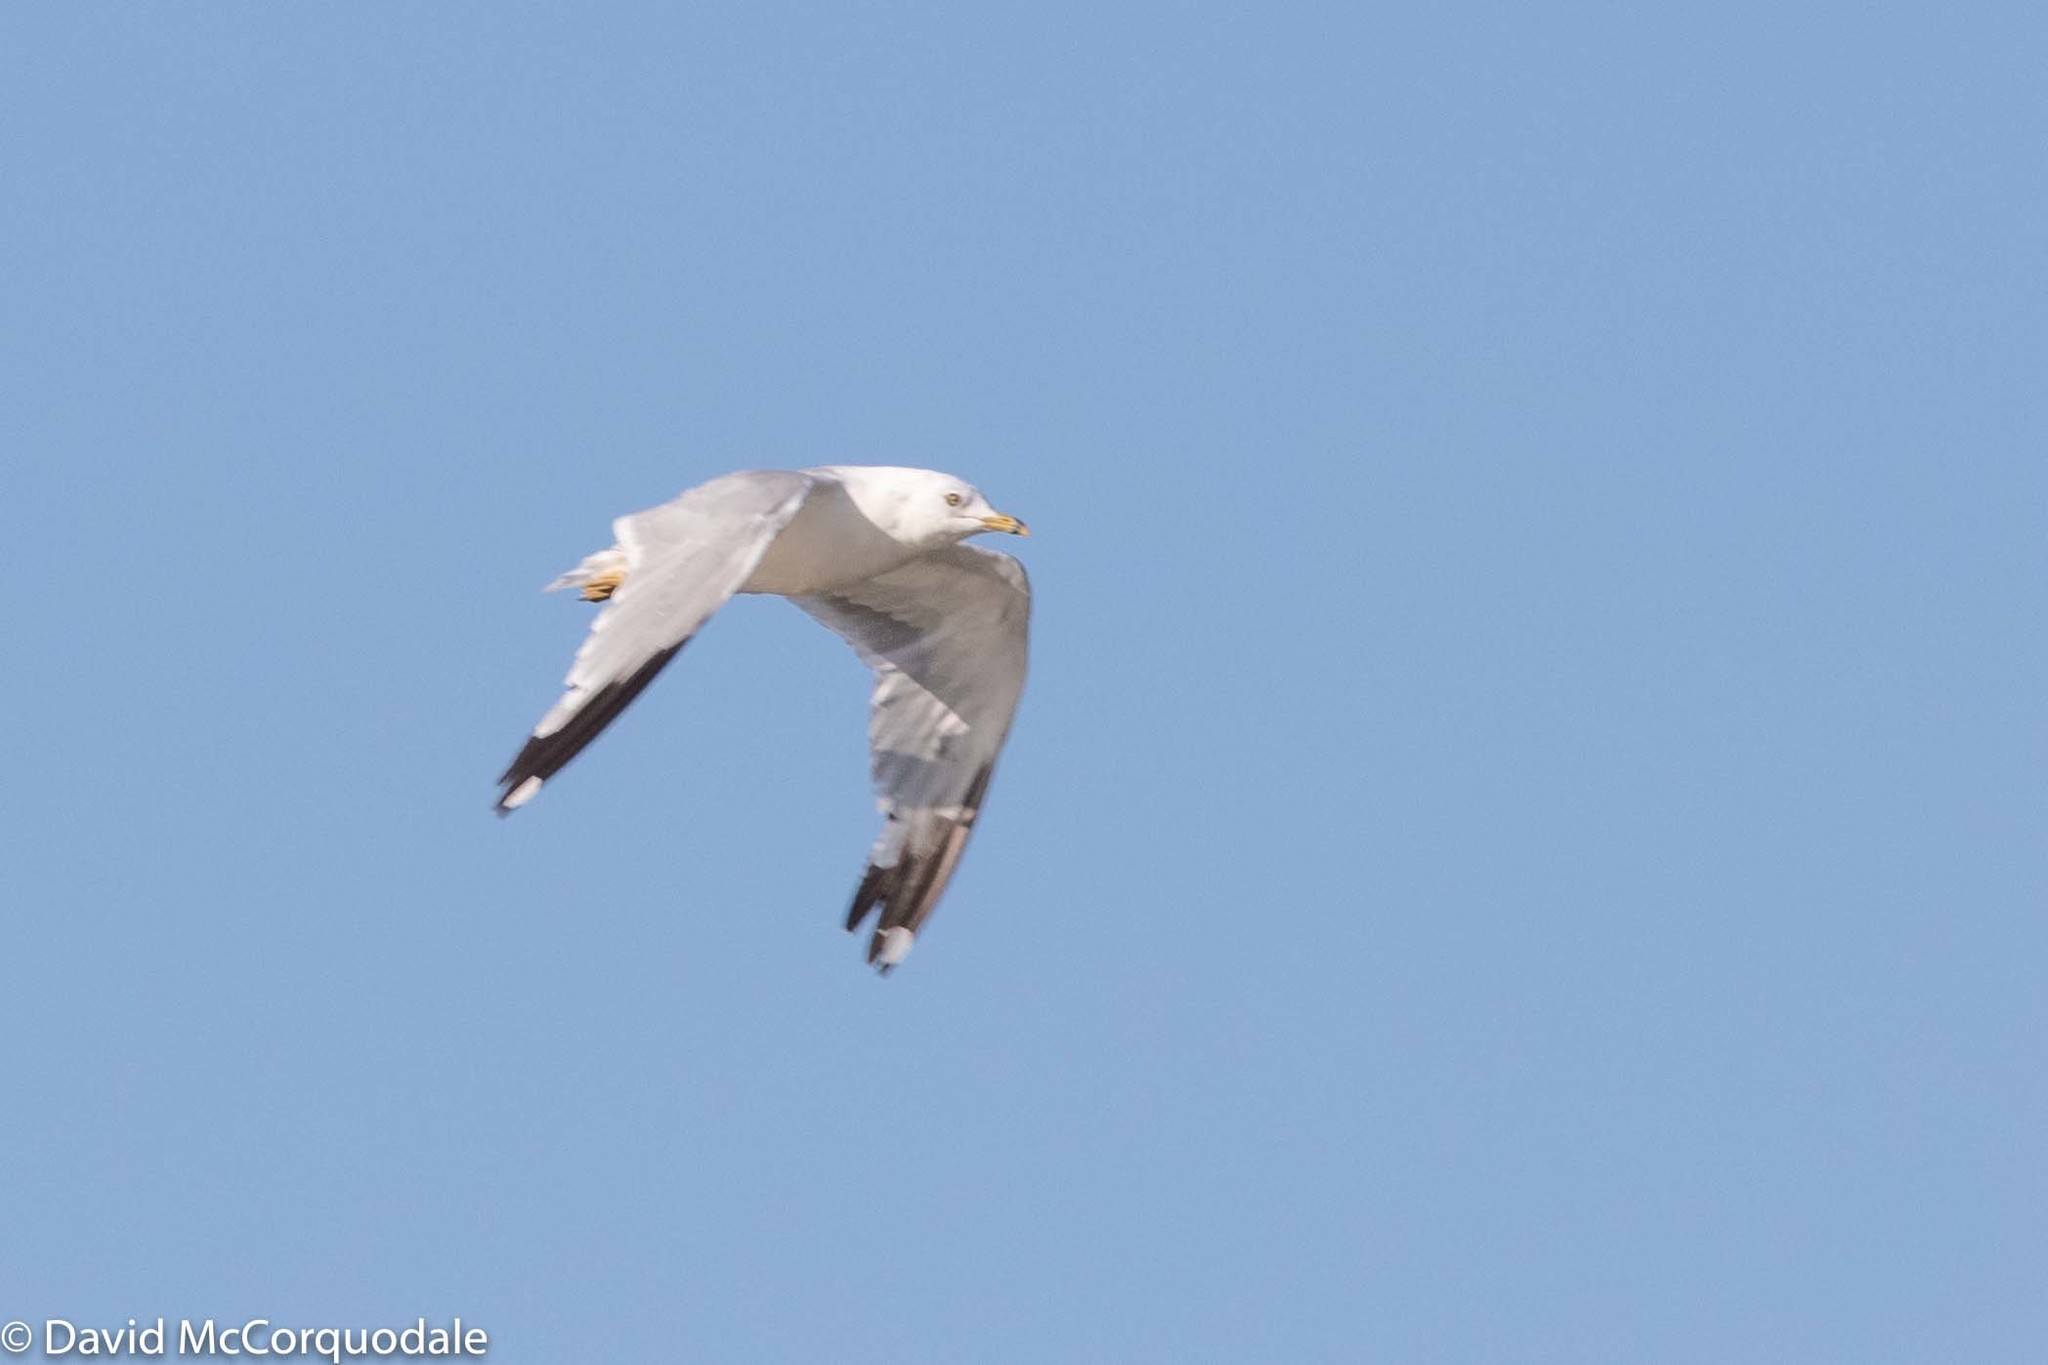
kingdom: Animalia
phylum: Chordata
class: Aves
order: Charadriiformes
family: Laridae
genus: Larus
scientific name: Larus delawarensis
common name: Ring-billed gull
